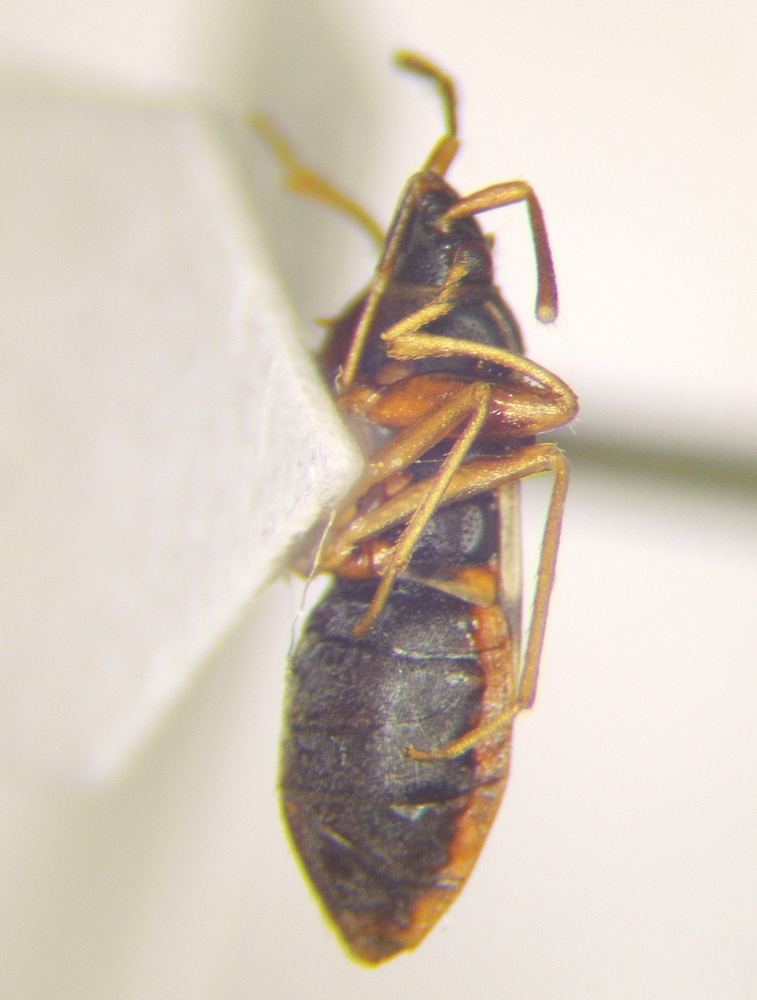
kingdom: Animalia
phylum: Arthropoda
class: Insecta
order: Hemiptera
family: Rhyparochromidae
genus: Scolopostethus
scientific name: Scolopostethus pictus
